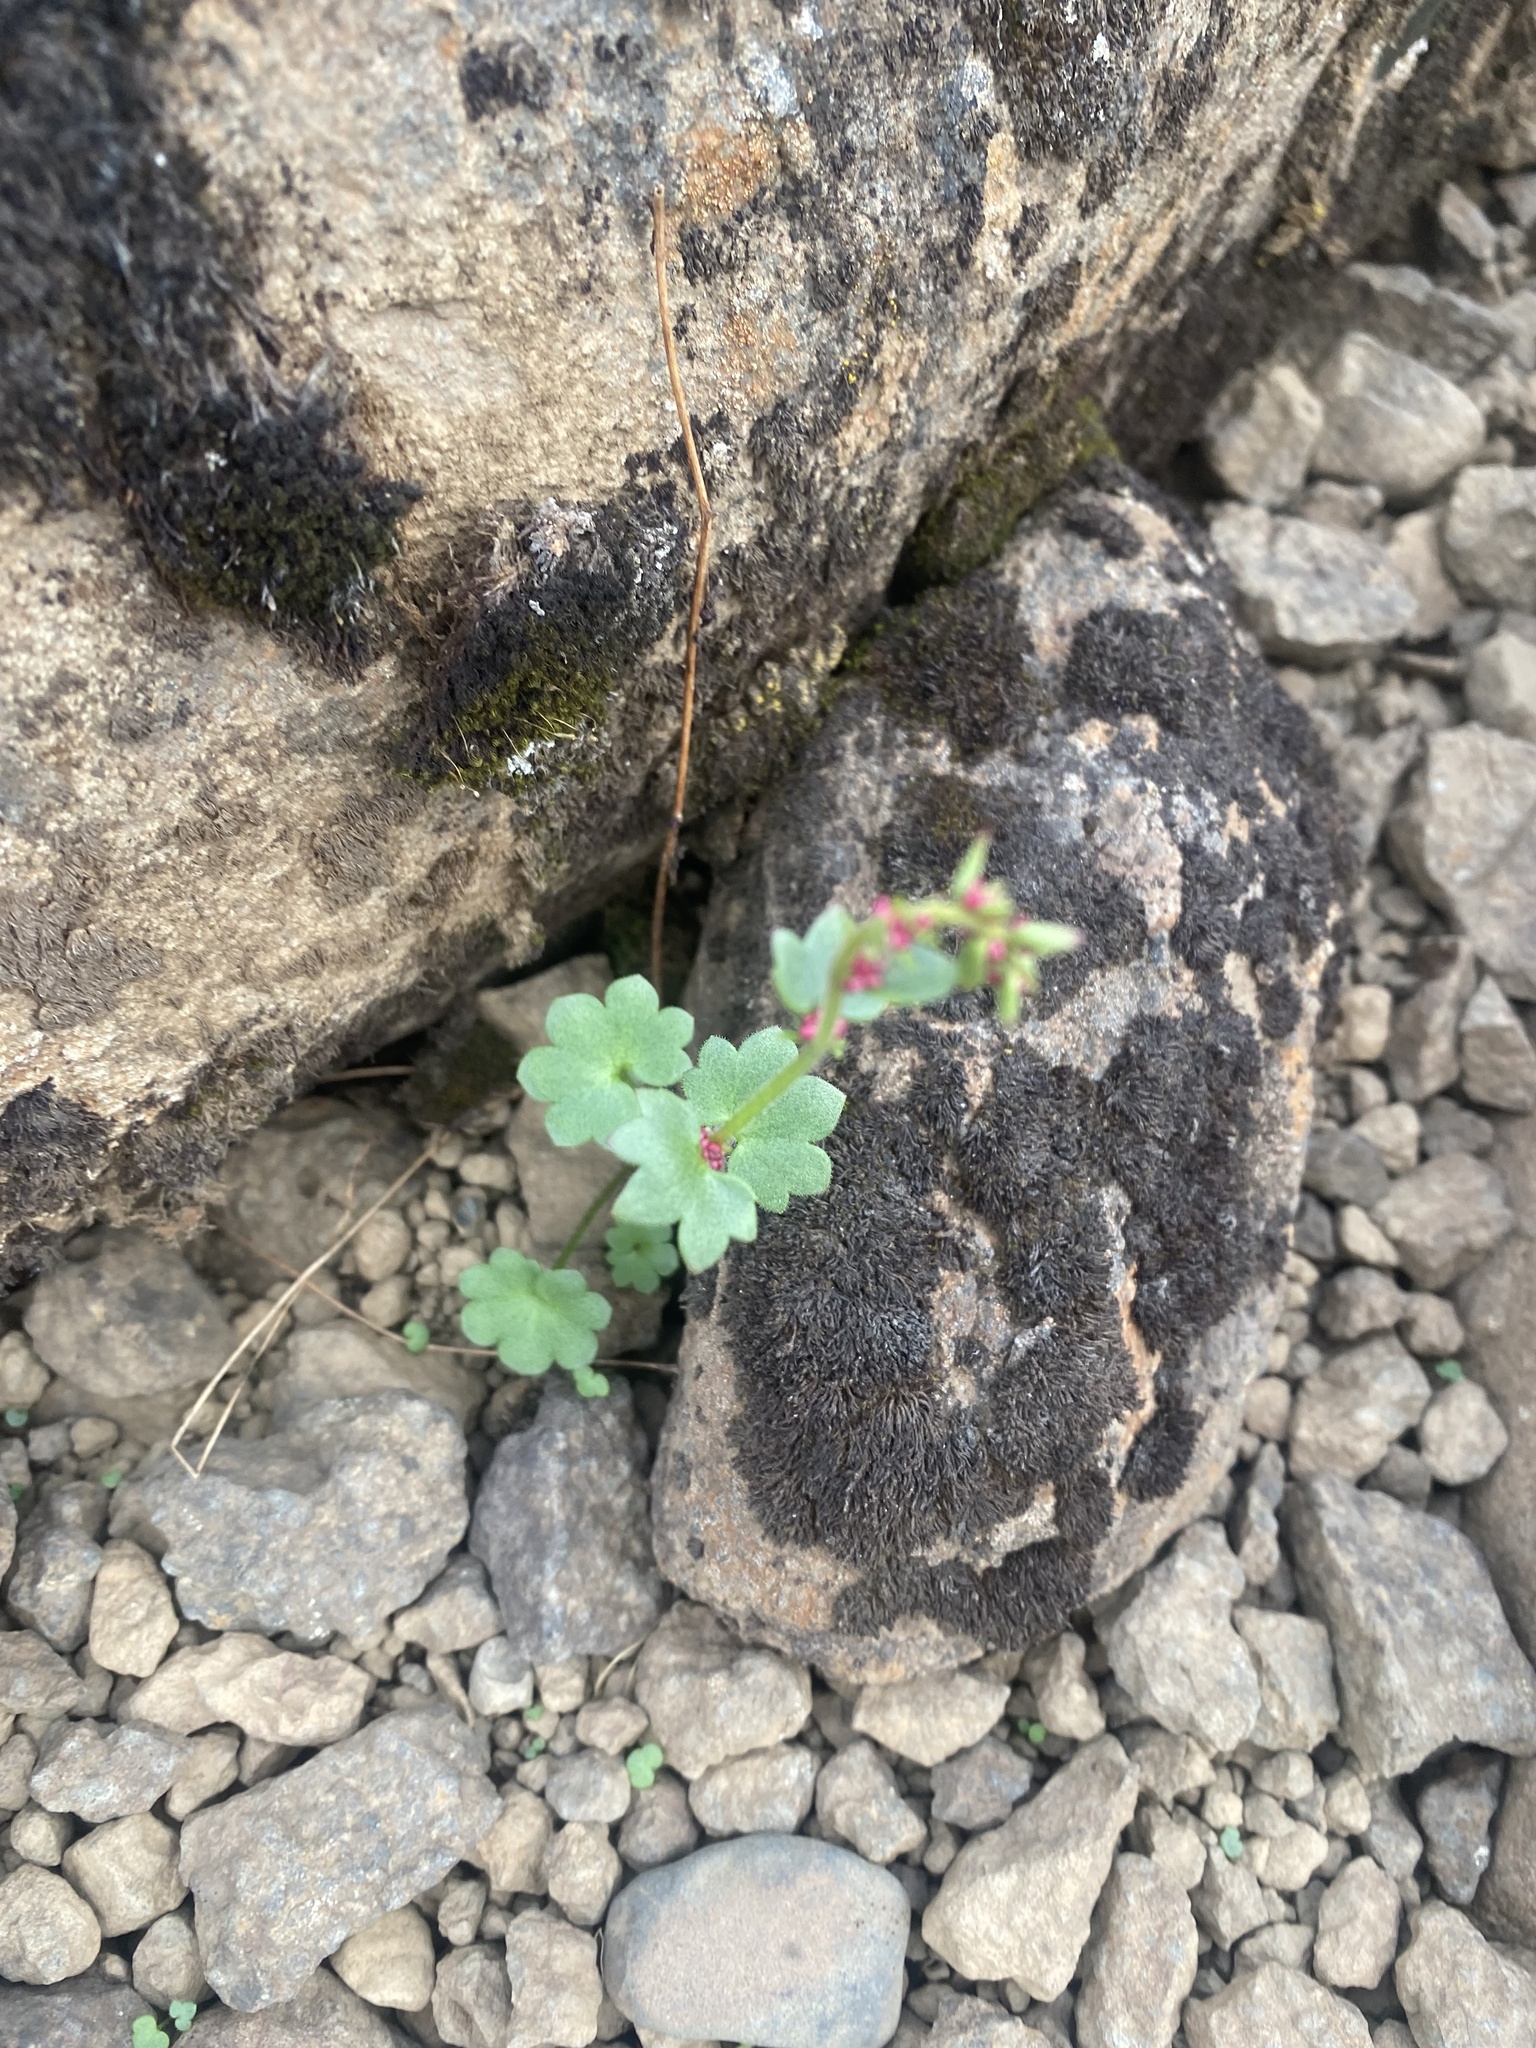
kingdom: Plantae
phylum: Tracheophyta
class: Magnoliopsida
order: Saxifragales
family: Saxifragaceae
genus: Saxifraga
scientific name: Saxifraga cernua
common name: Drooping saxifrage
